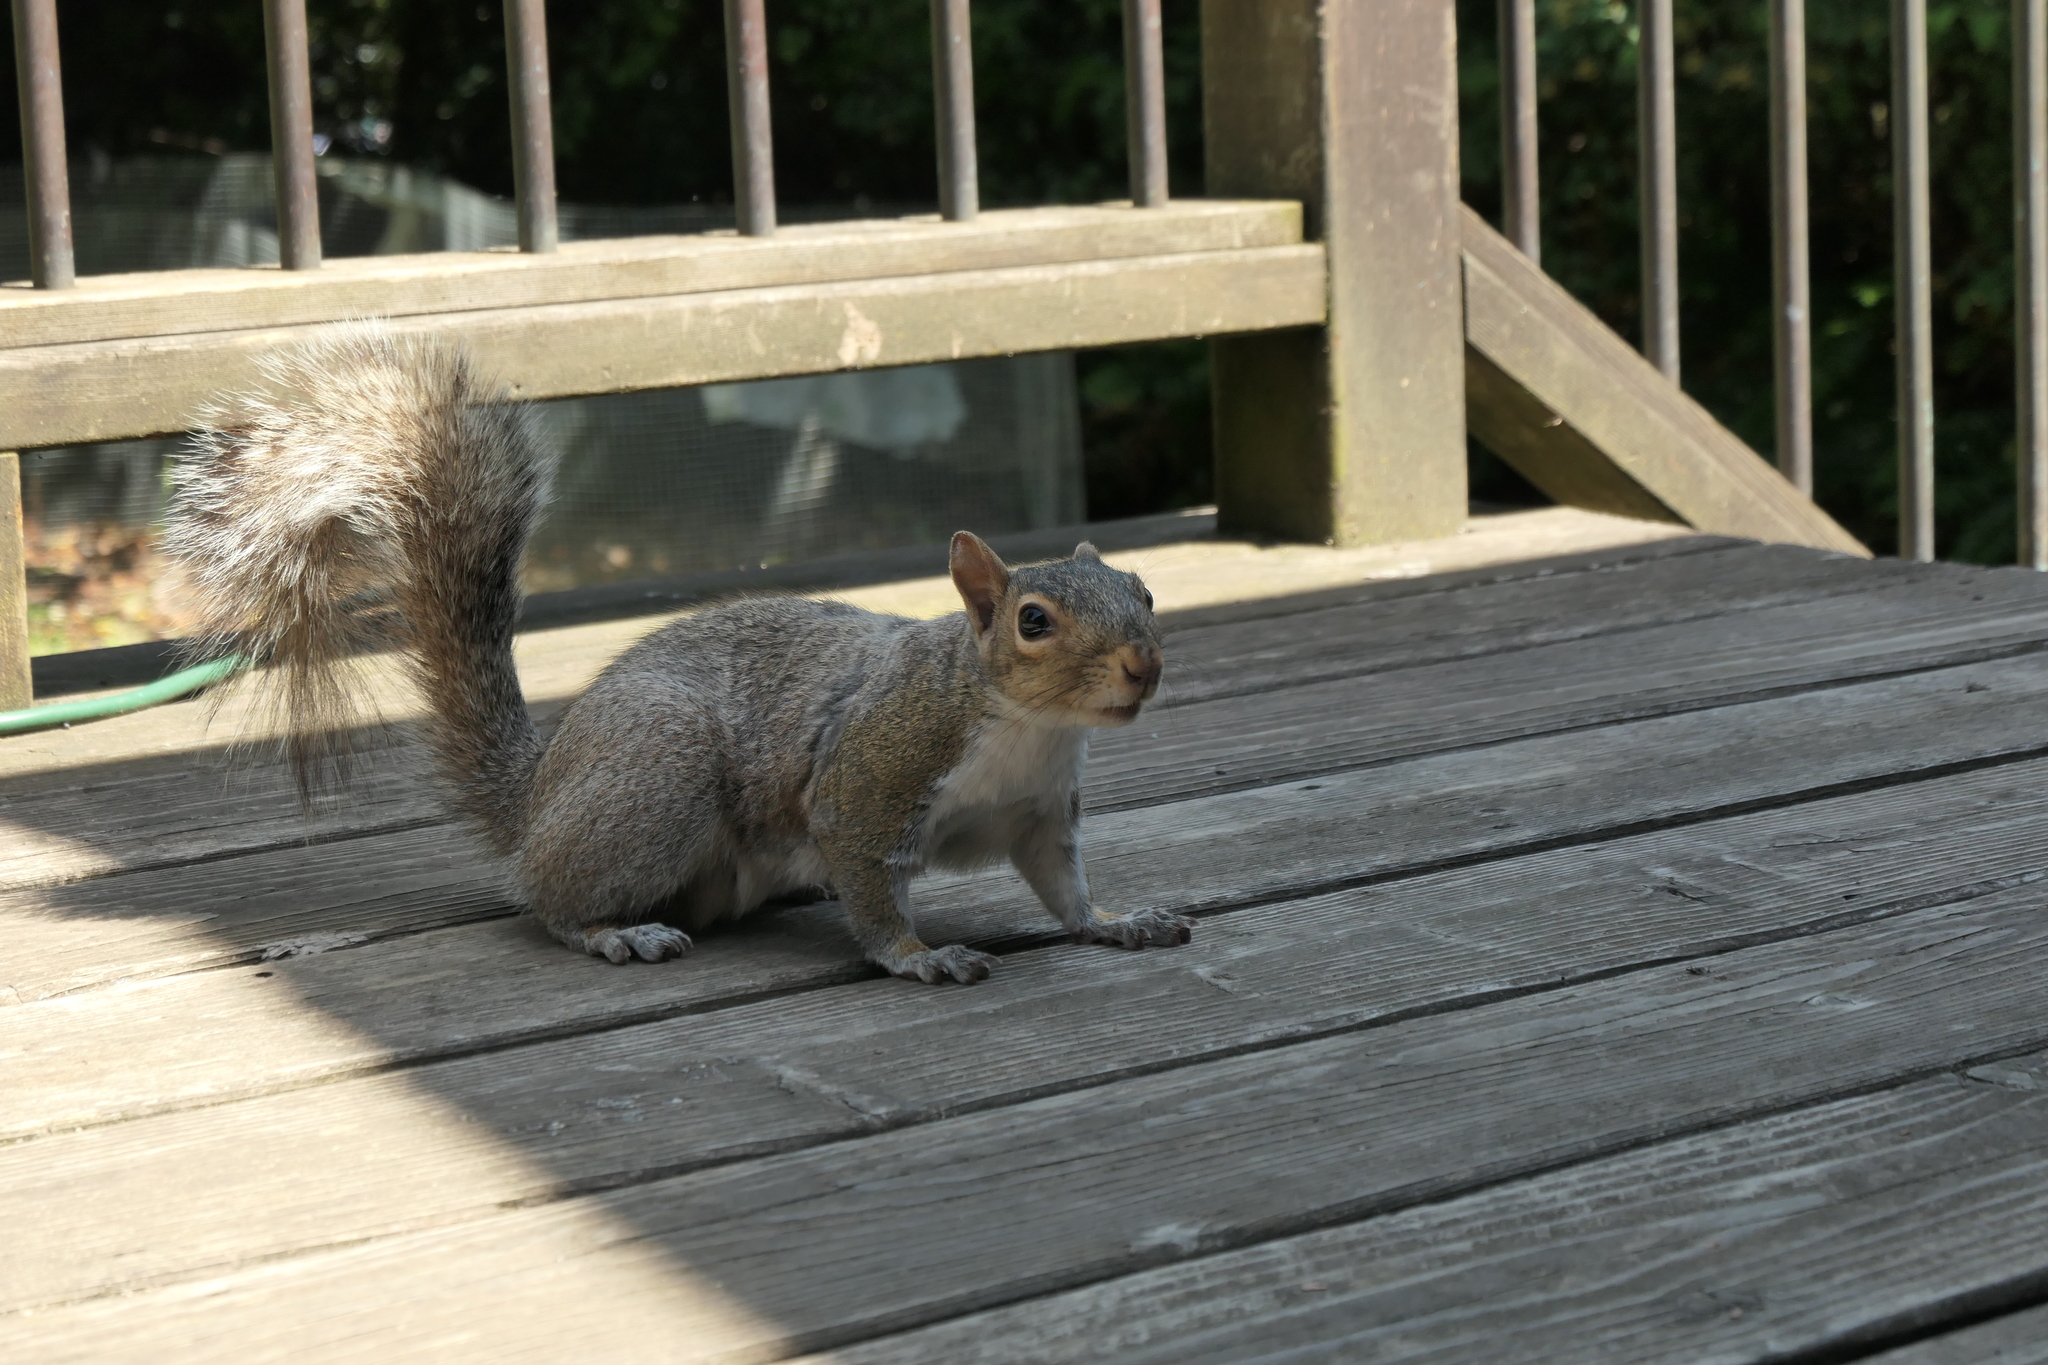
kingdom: Animalia
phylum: Chordata
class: Mammalia
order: Rodentia
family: Sciuridae
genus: Sciurus
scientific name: Sciurus carolinensis
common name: Eastern gray squirrel
